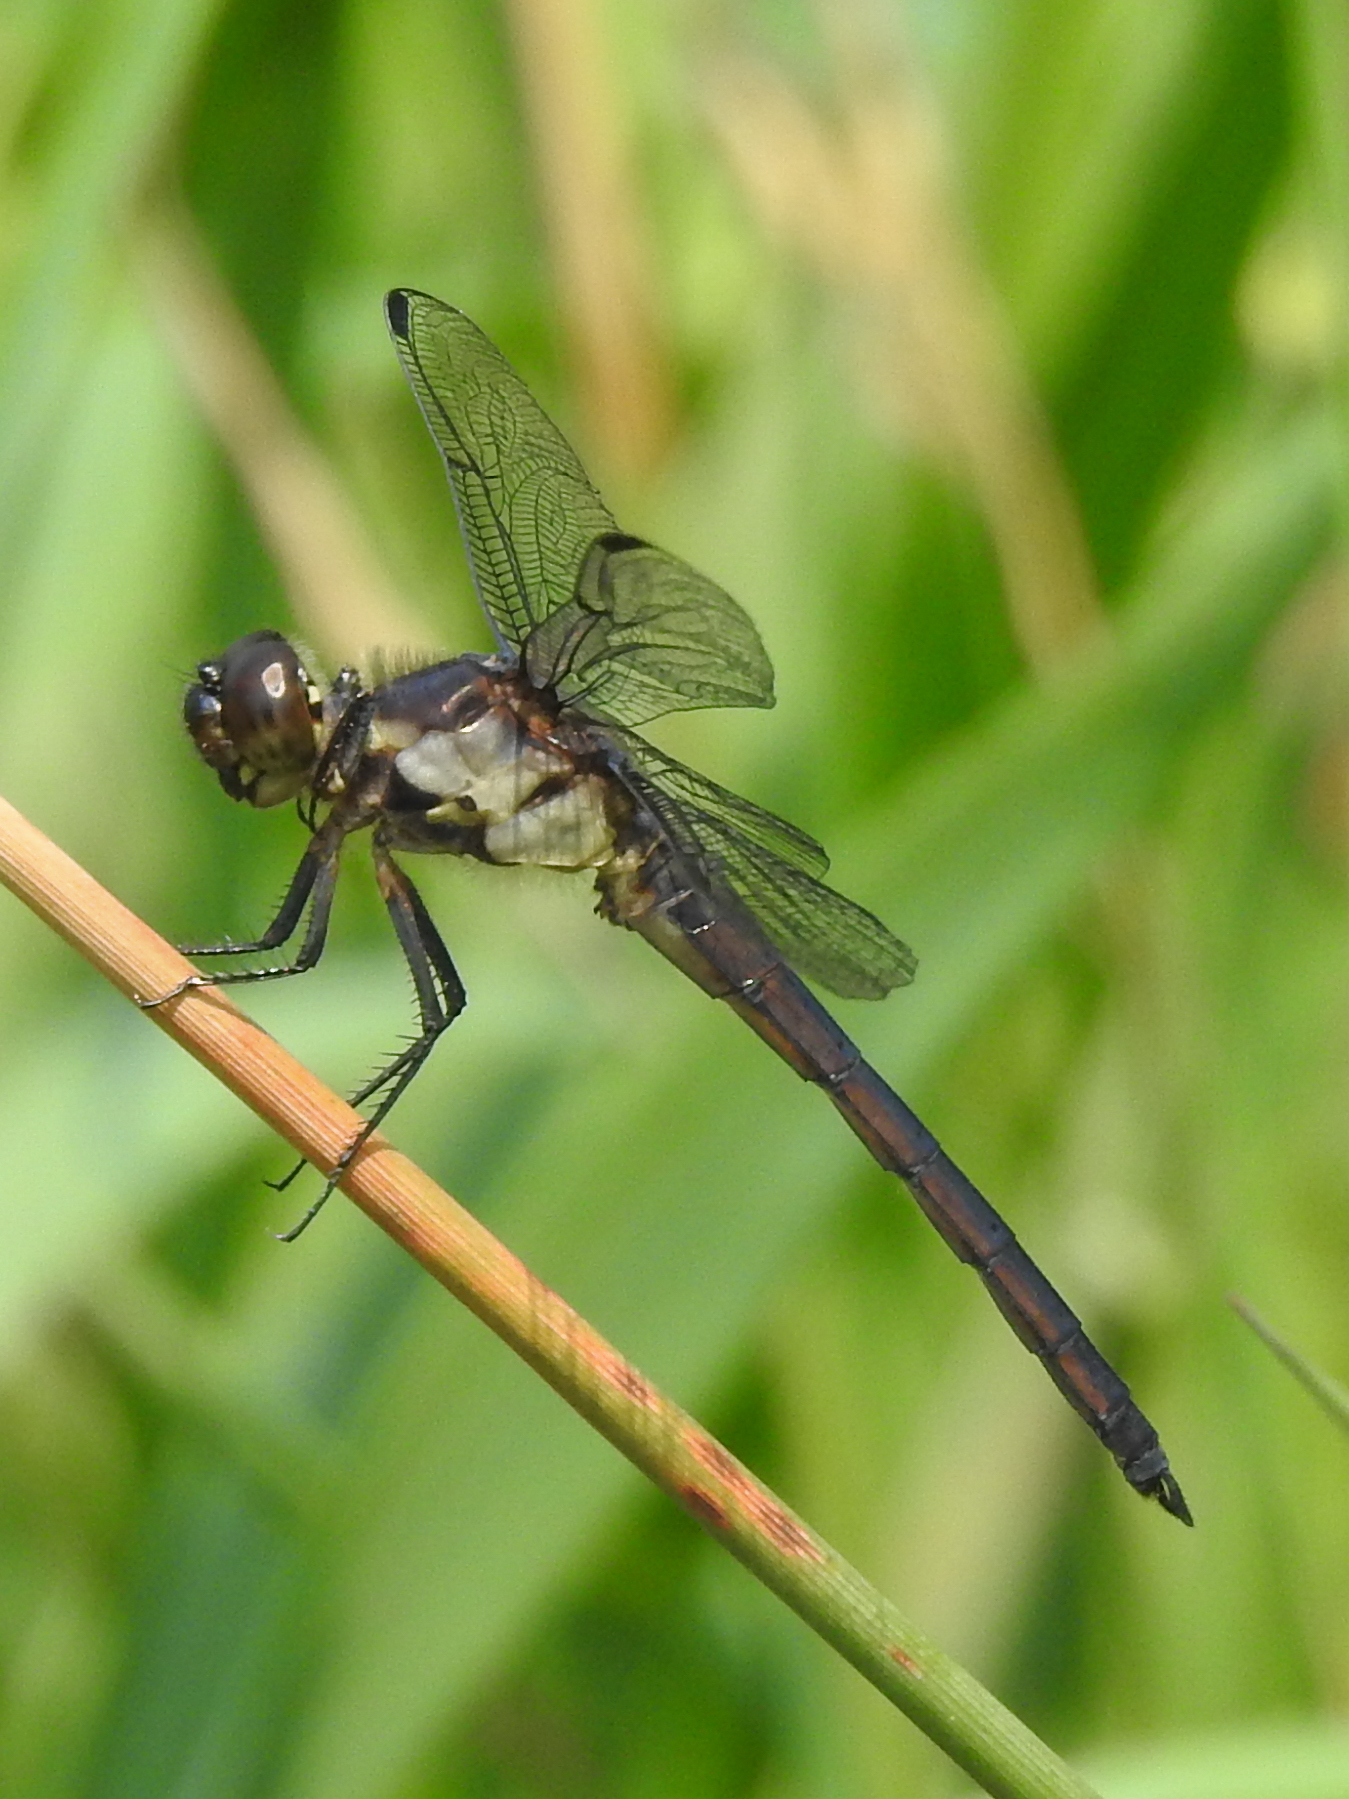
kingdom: Animalia
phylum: Arthropoda
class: Insecta
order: Odonata
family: Libellulidae
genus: Libellula
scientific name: Libellula incesta
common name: Slaty skimmer
